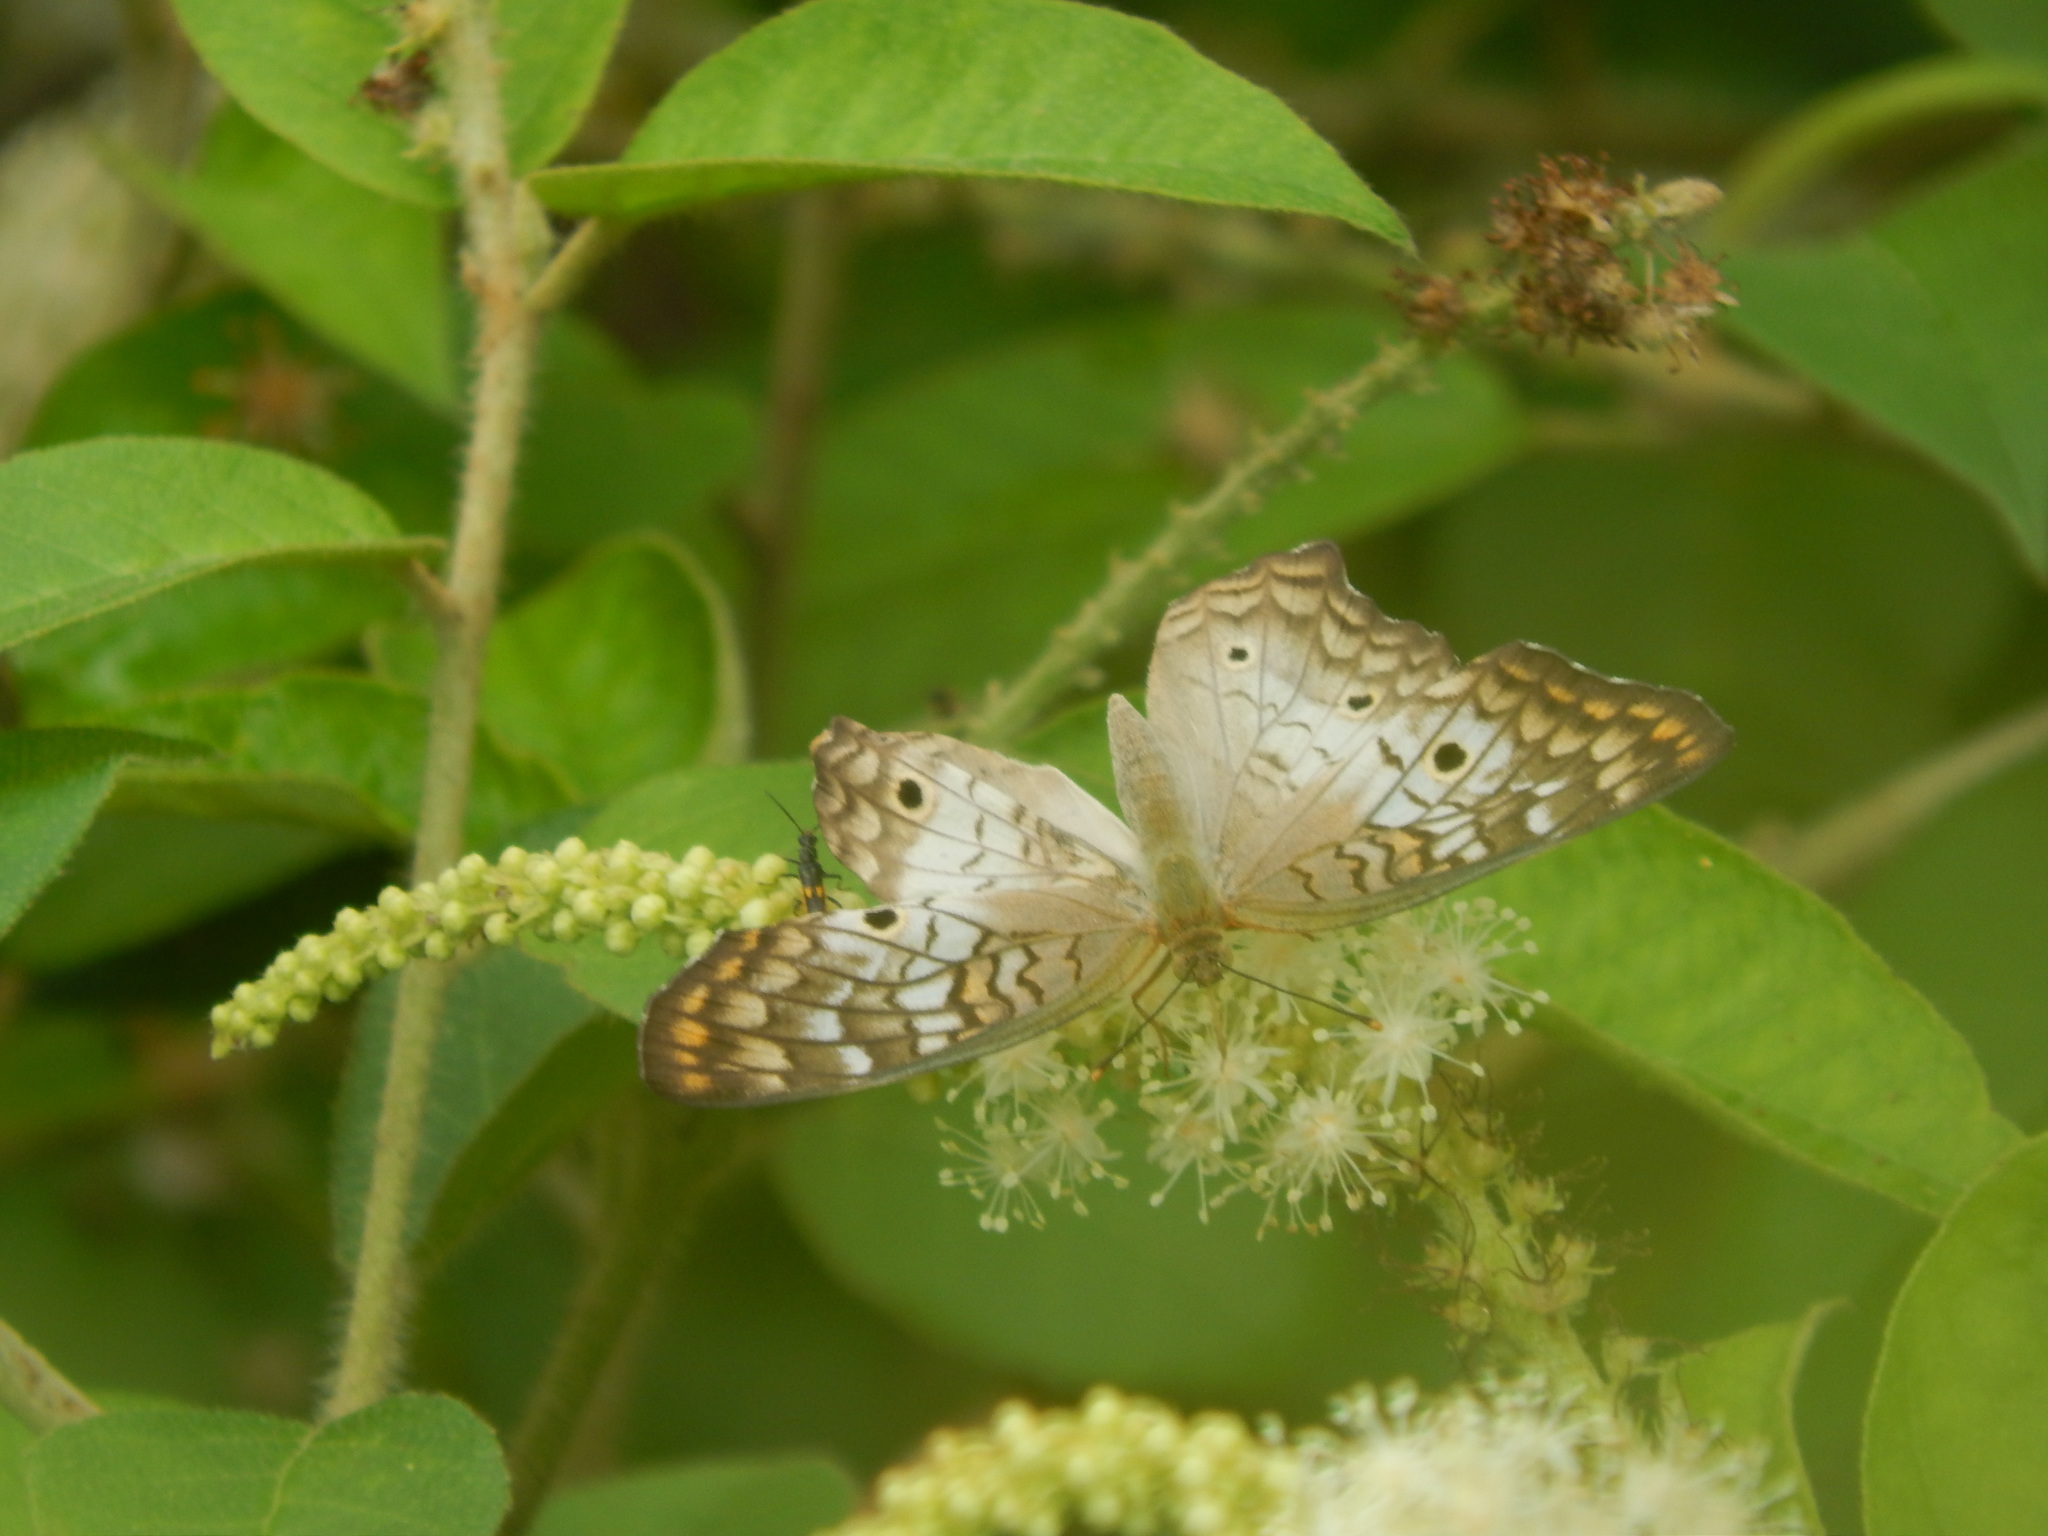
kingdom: Animalia
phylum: Arthropoda
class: Insecta
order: Lepidoptera
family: Nymphalidae
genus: Anartia
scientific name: Anartia jatrophae
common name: White peacock
